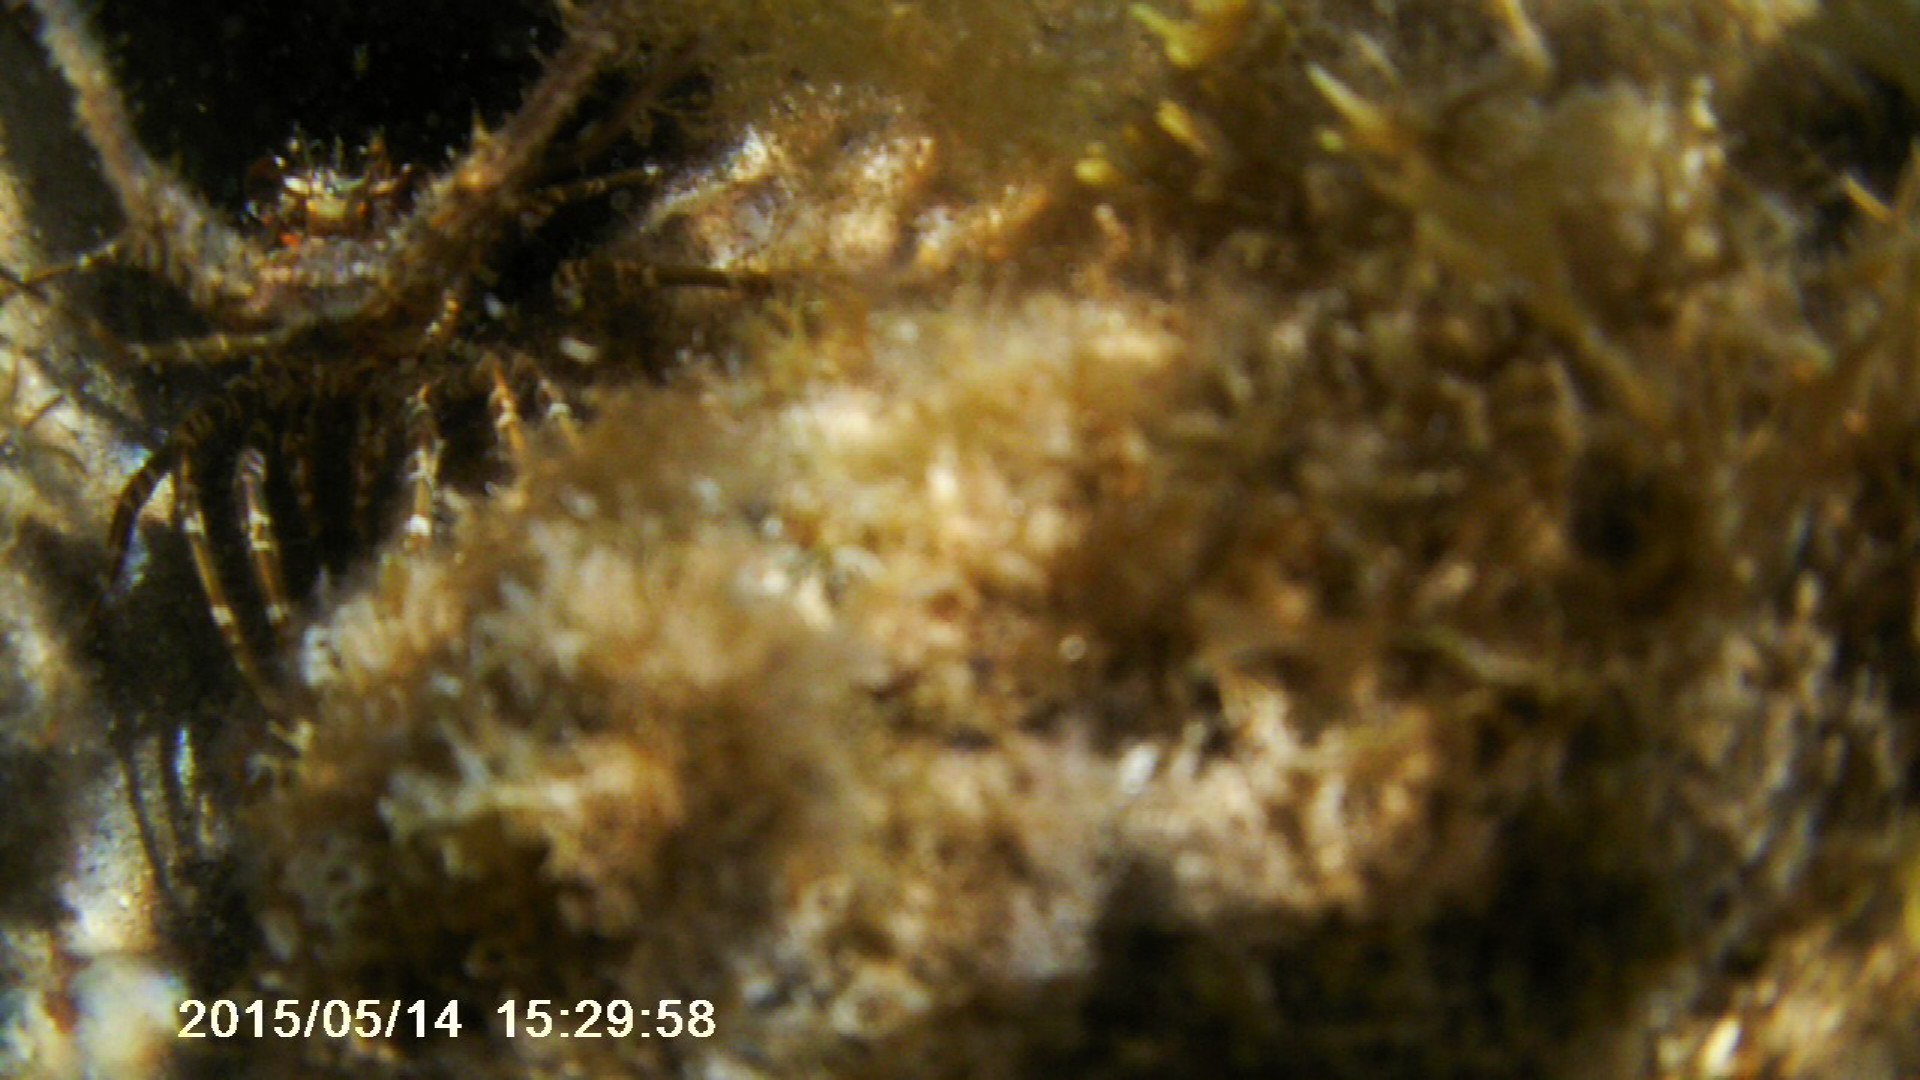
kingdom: Animalia
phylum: Arthropoda
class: Malacostraca
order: Decapoda
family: Palinuridae
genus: Panulirus
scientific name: Panulirus argus
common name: Caribbean spiny lobster
